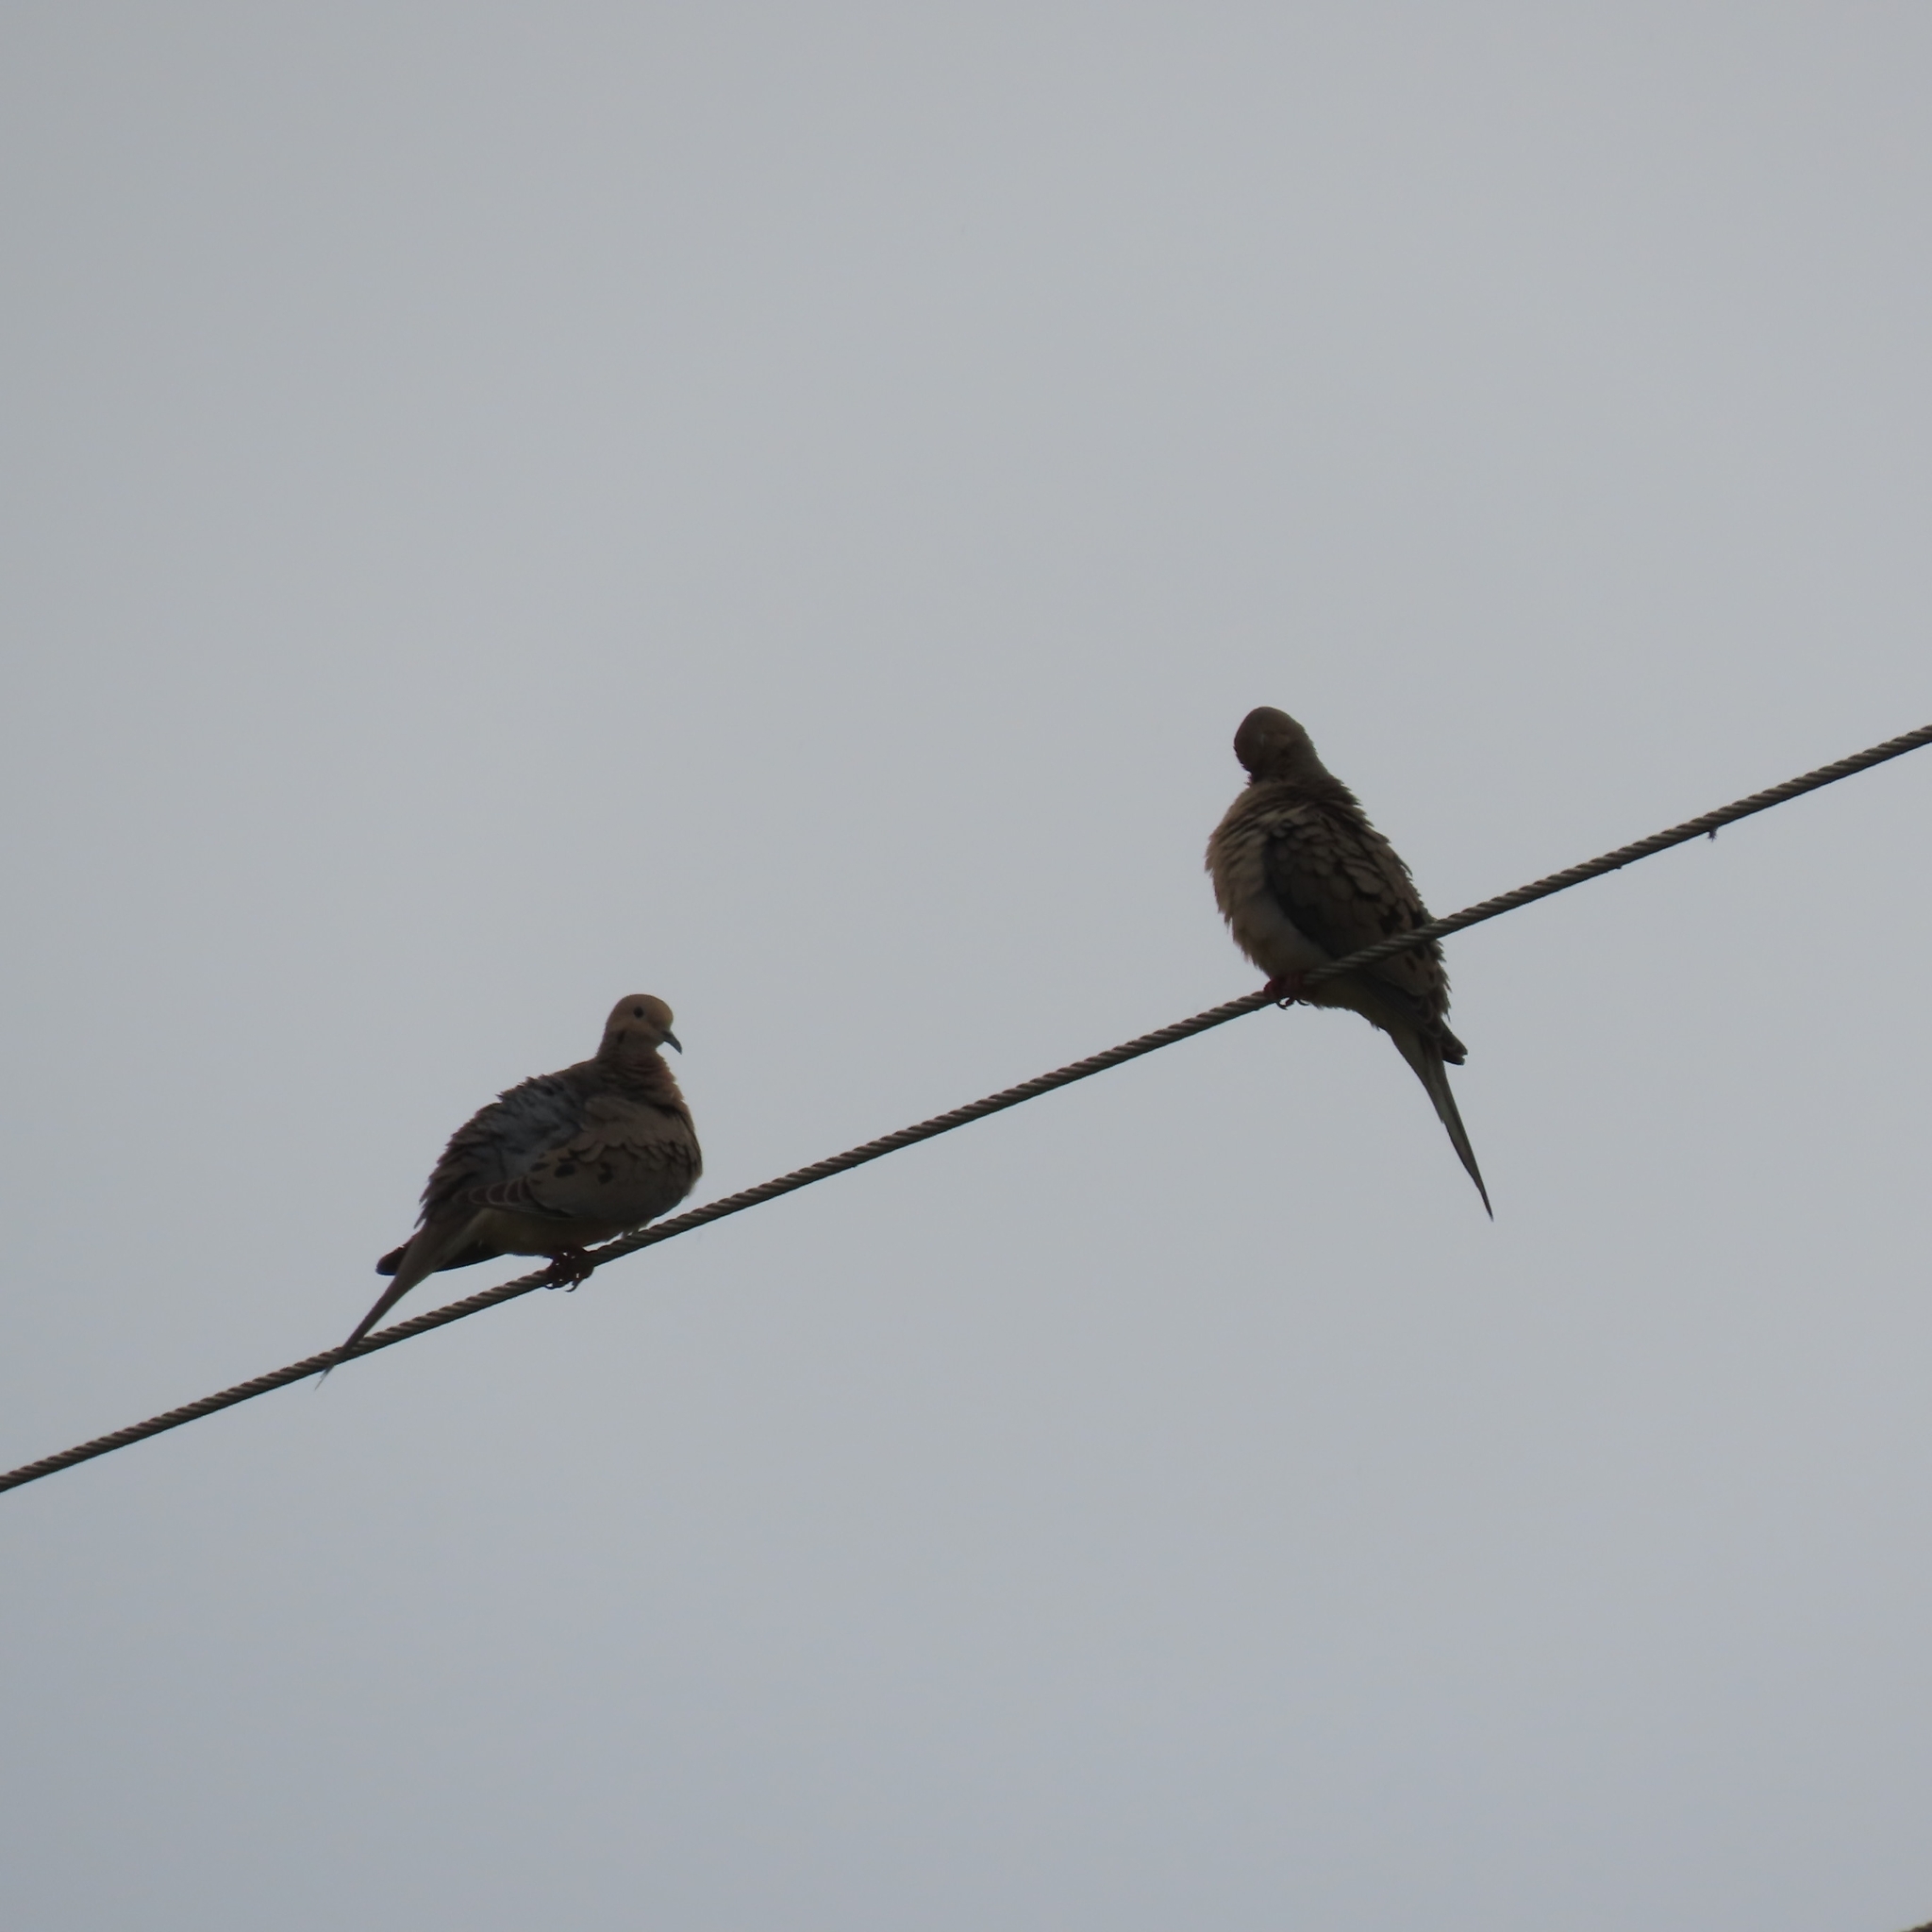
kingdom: Animalia
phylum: Chordata
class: Aves
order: Columbiformes
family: Columbidae
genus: Zenaida
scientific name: Zenaida macroura
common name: Mourning dove
